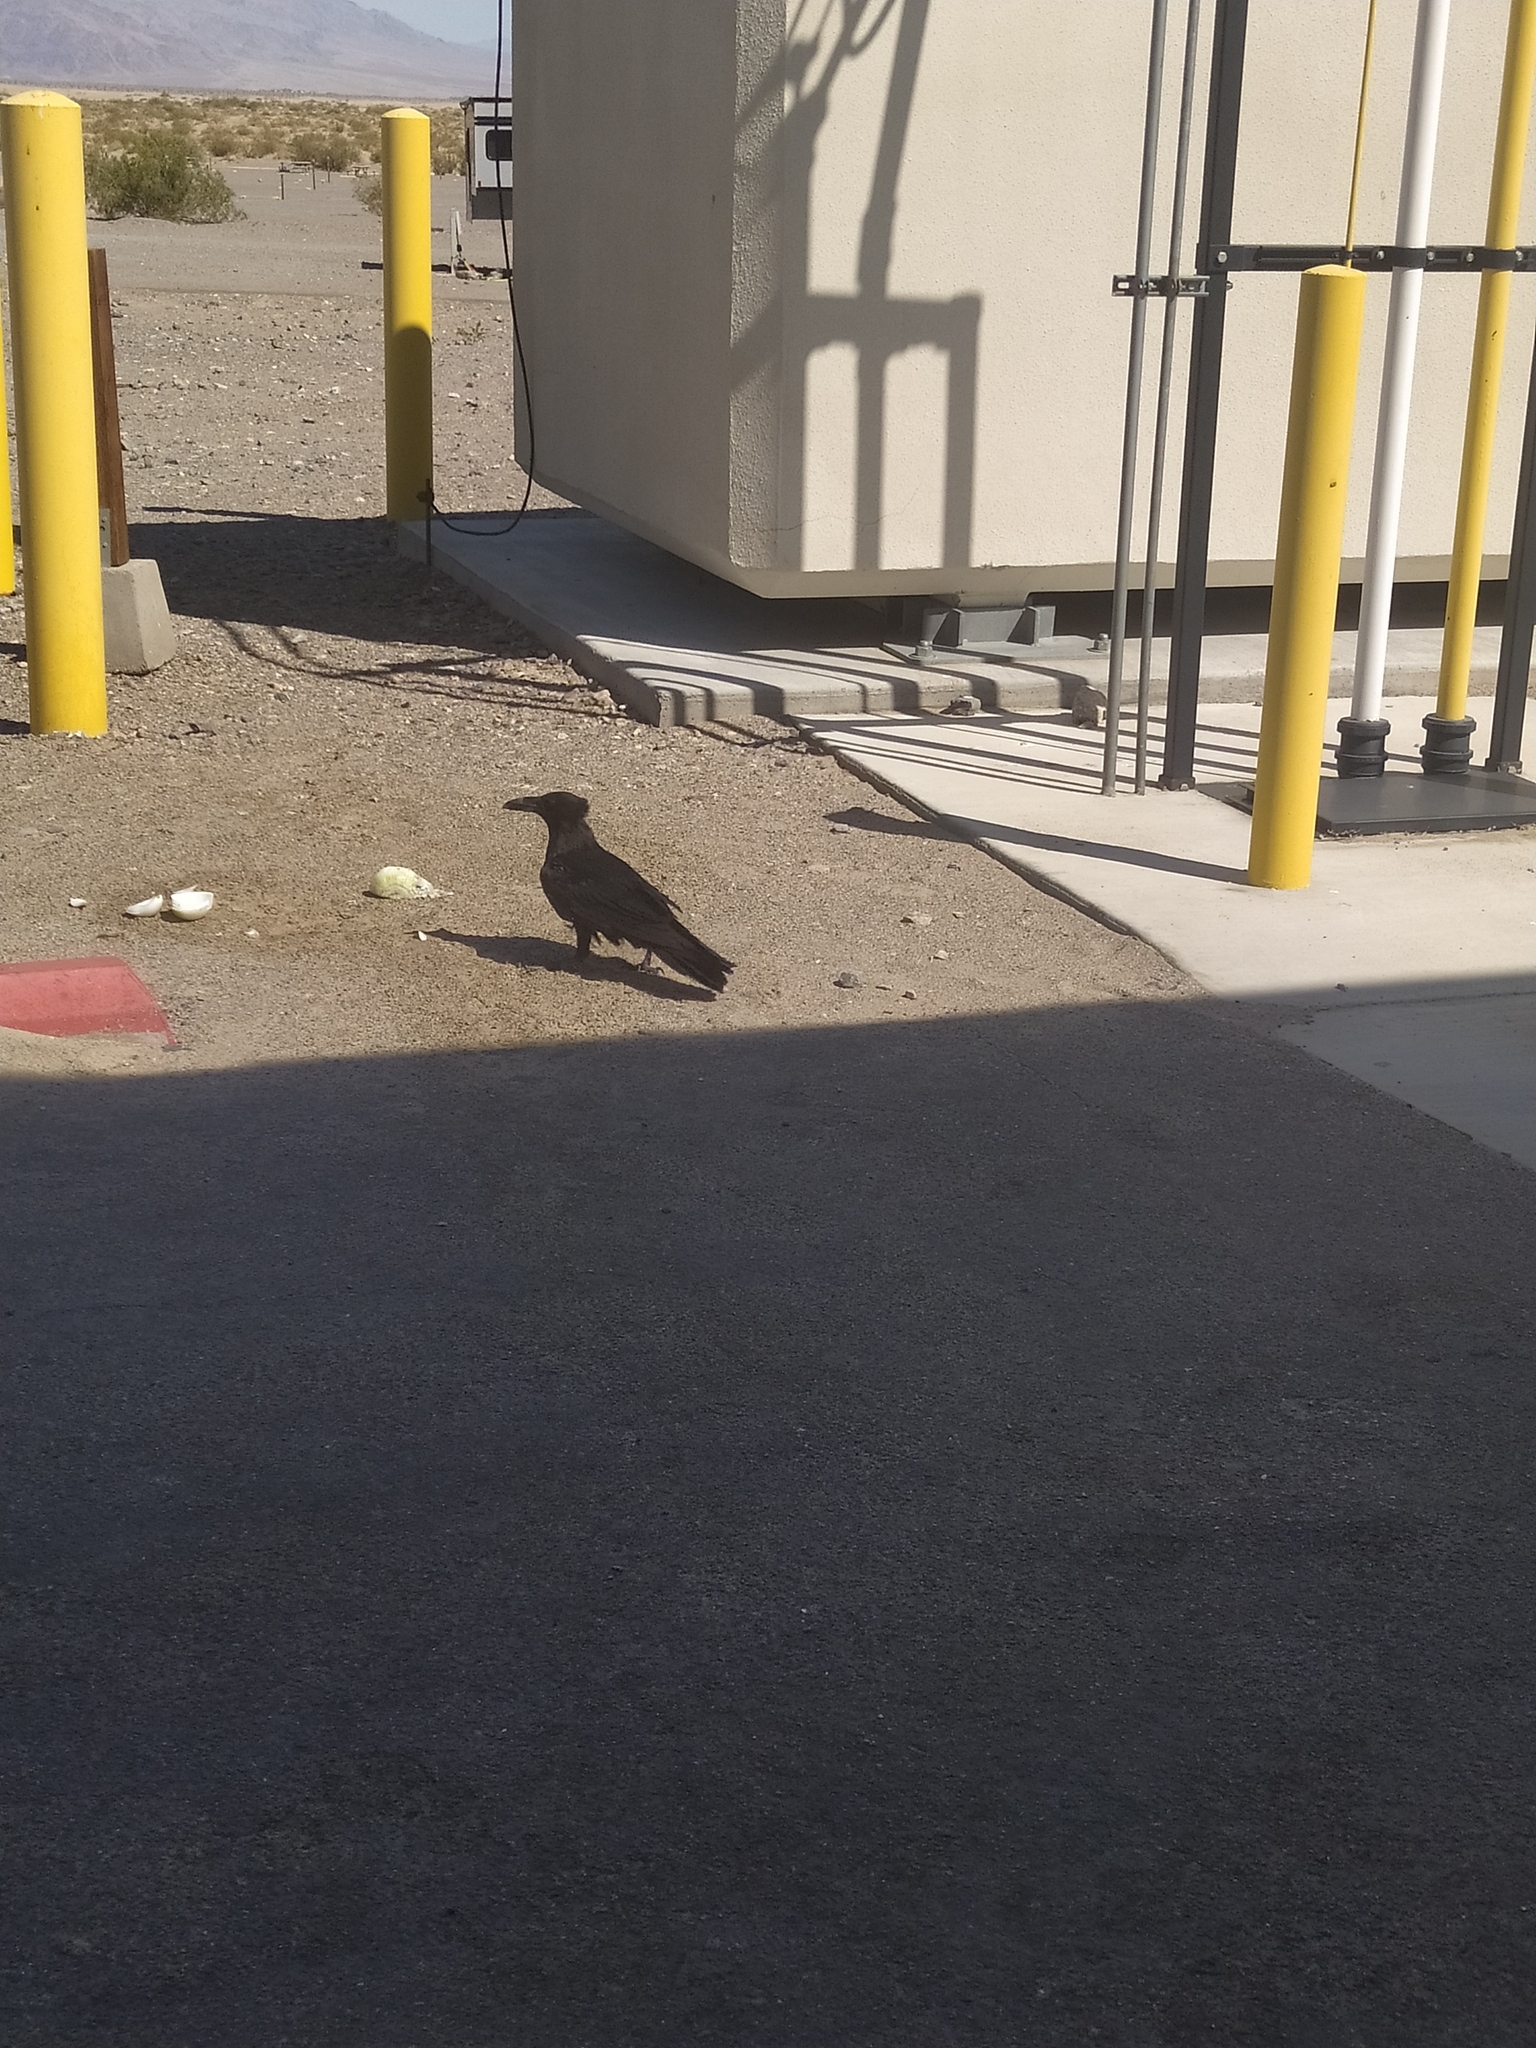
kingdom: Animalia
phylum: Chordata
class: Aves
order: Passeriformes
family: Corvidae
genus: Corvus
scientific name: Corvus corax
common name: Common raven
